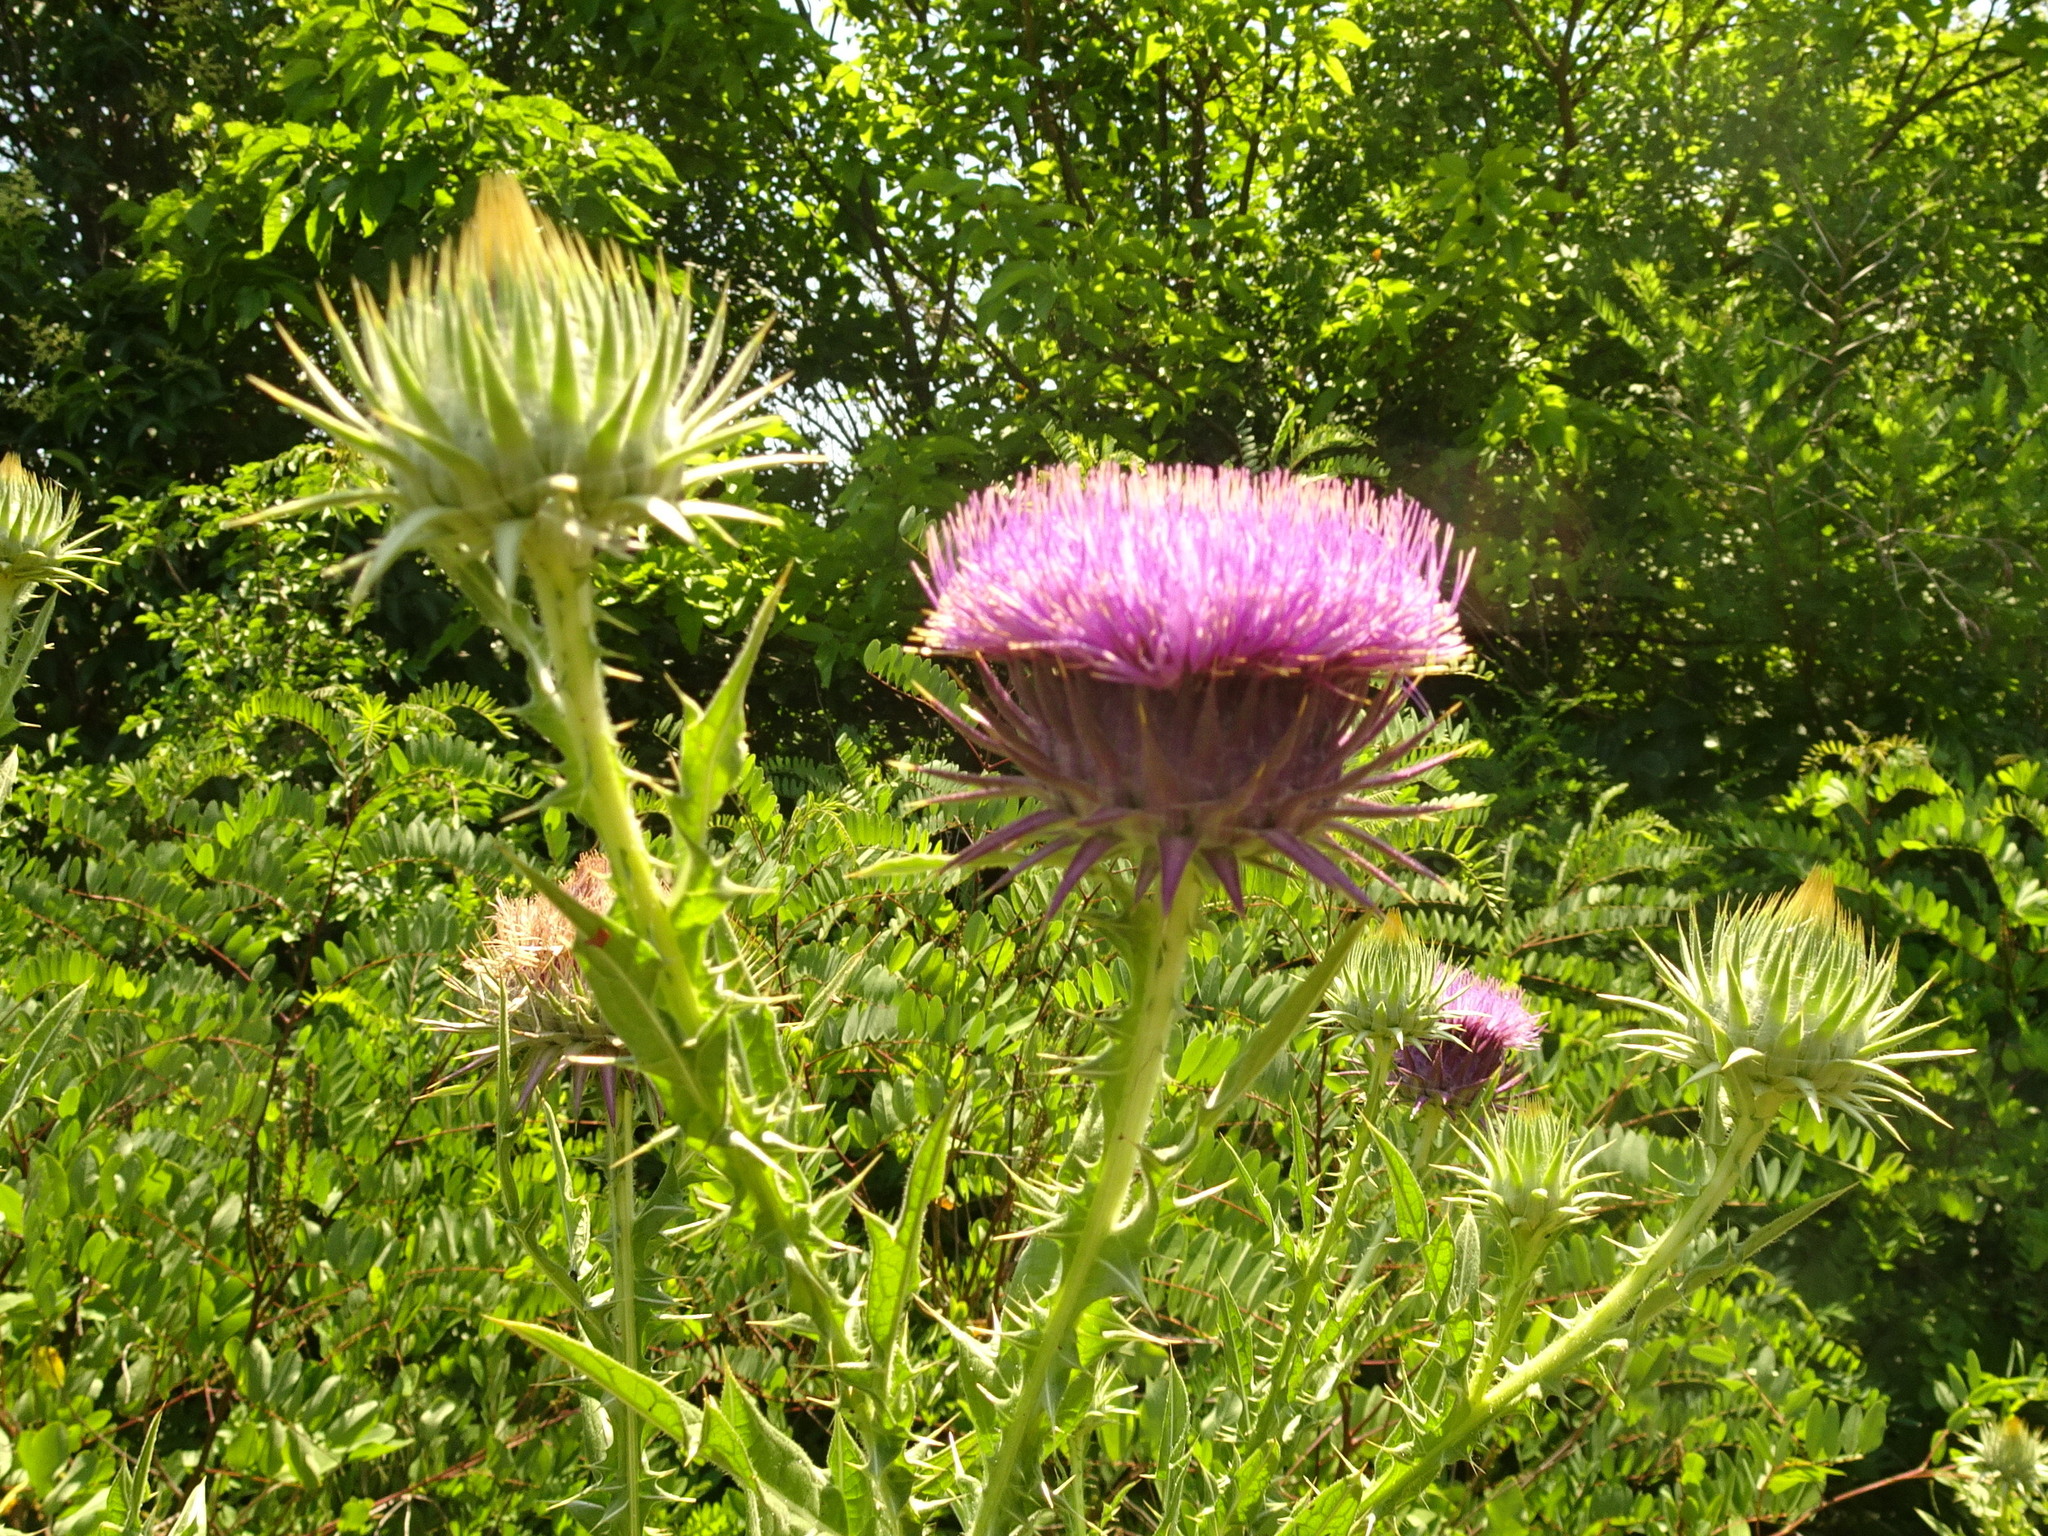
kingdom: Plantae
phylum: Tracheophyta
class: Magnoliopsida
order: Asterales
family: Asteraceae
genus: Onopordum
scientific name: Onopordum tauricum
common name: Bull cottonthistle
